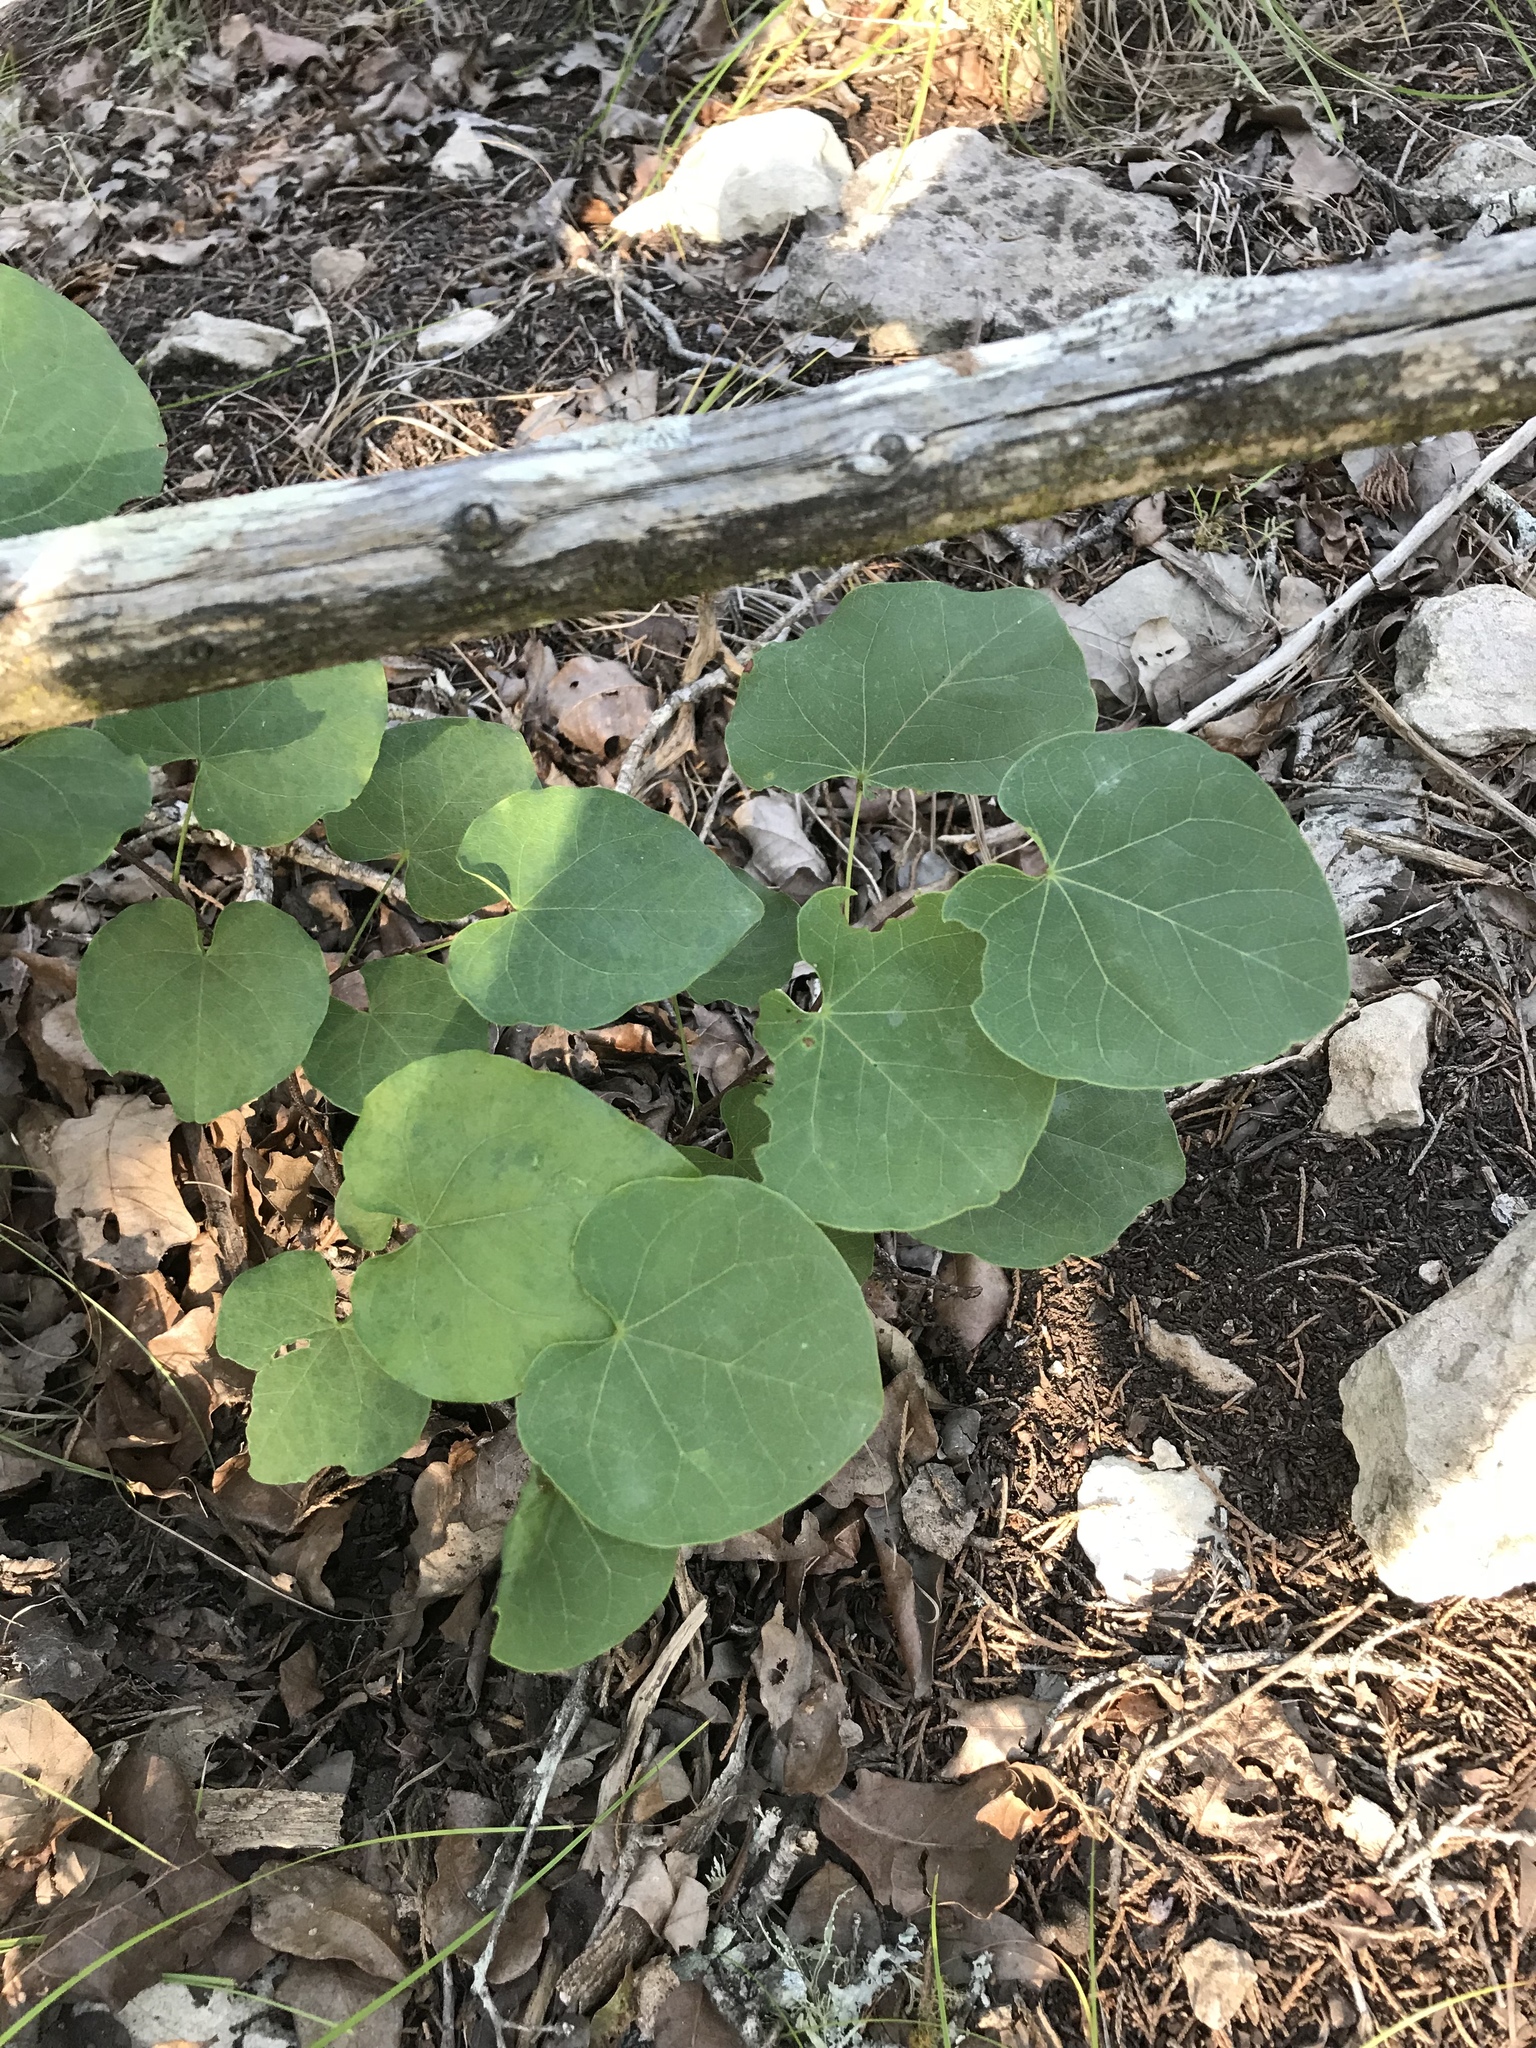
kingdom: Plantae
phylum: Tracheophyta
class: Magnoliopsida
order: Fabales
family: Fabaceae
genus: Cercis
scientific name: Cercis canadensis
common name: Eastern redbud
